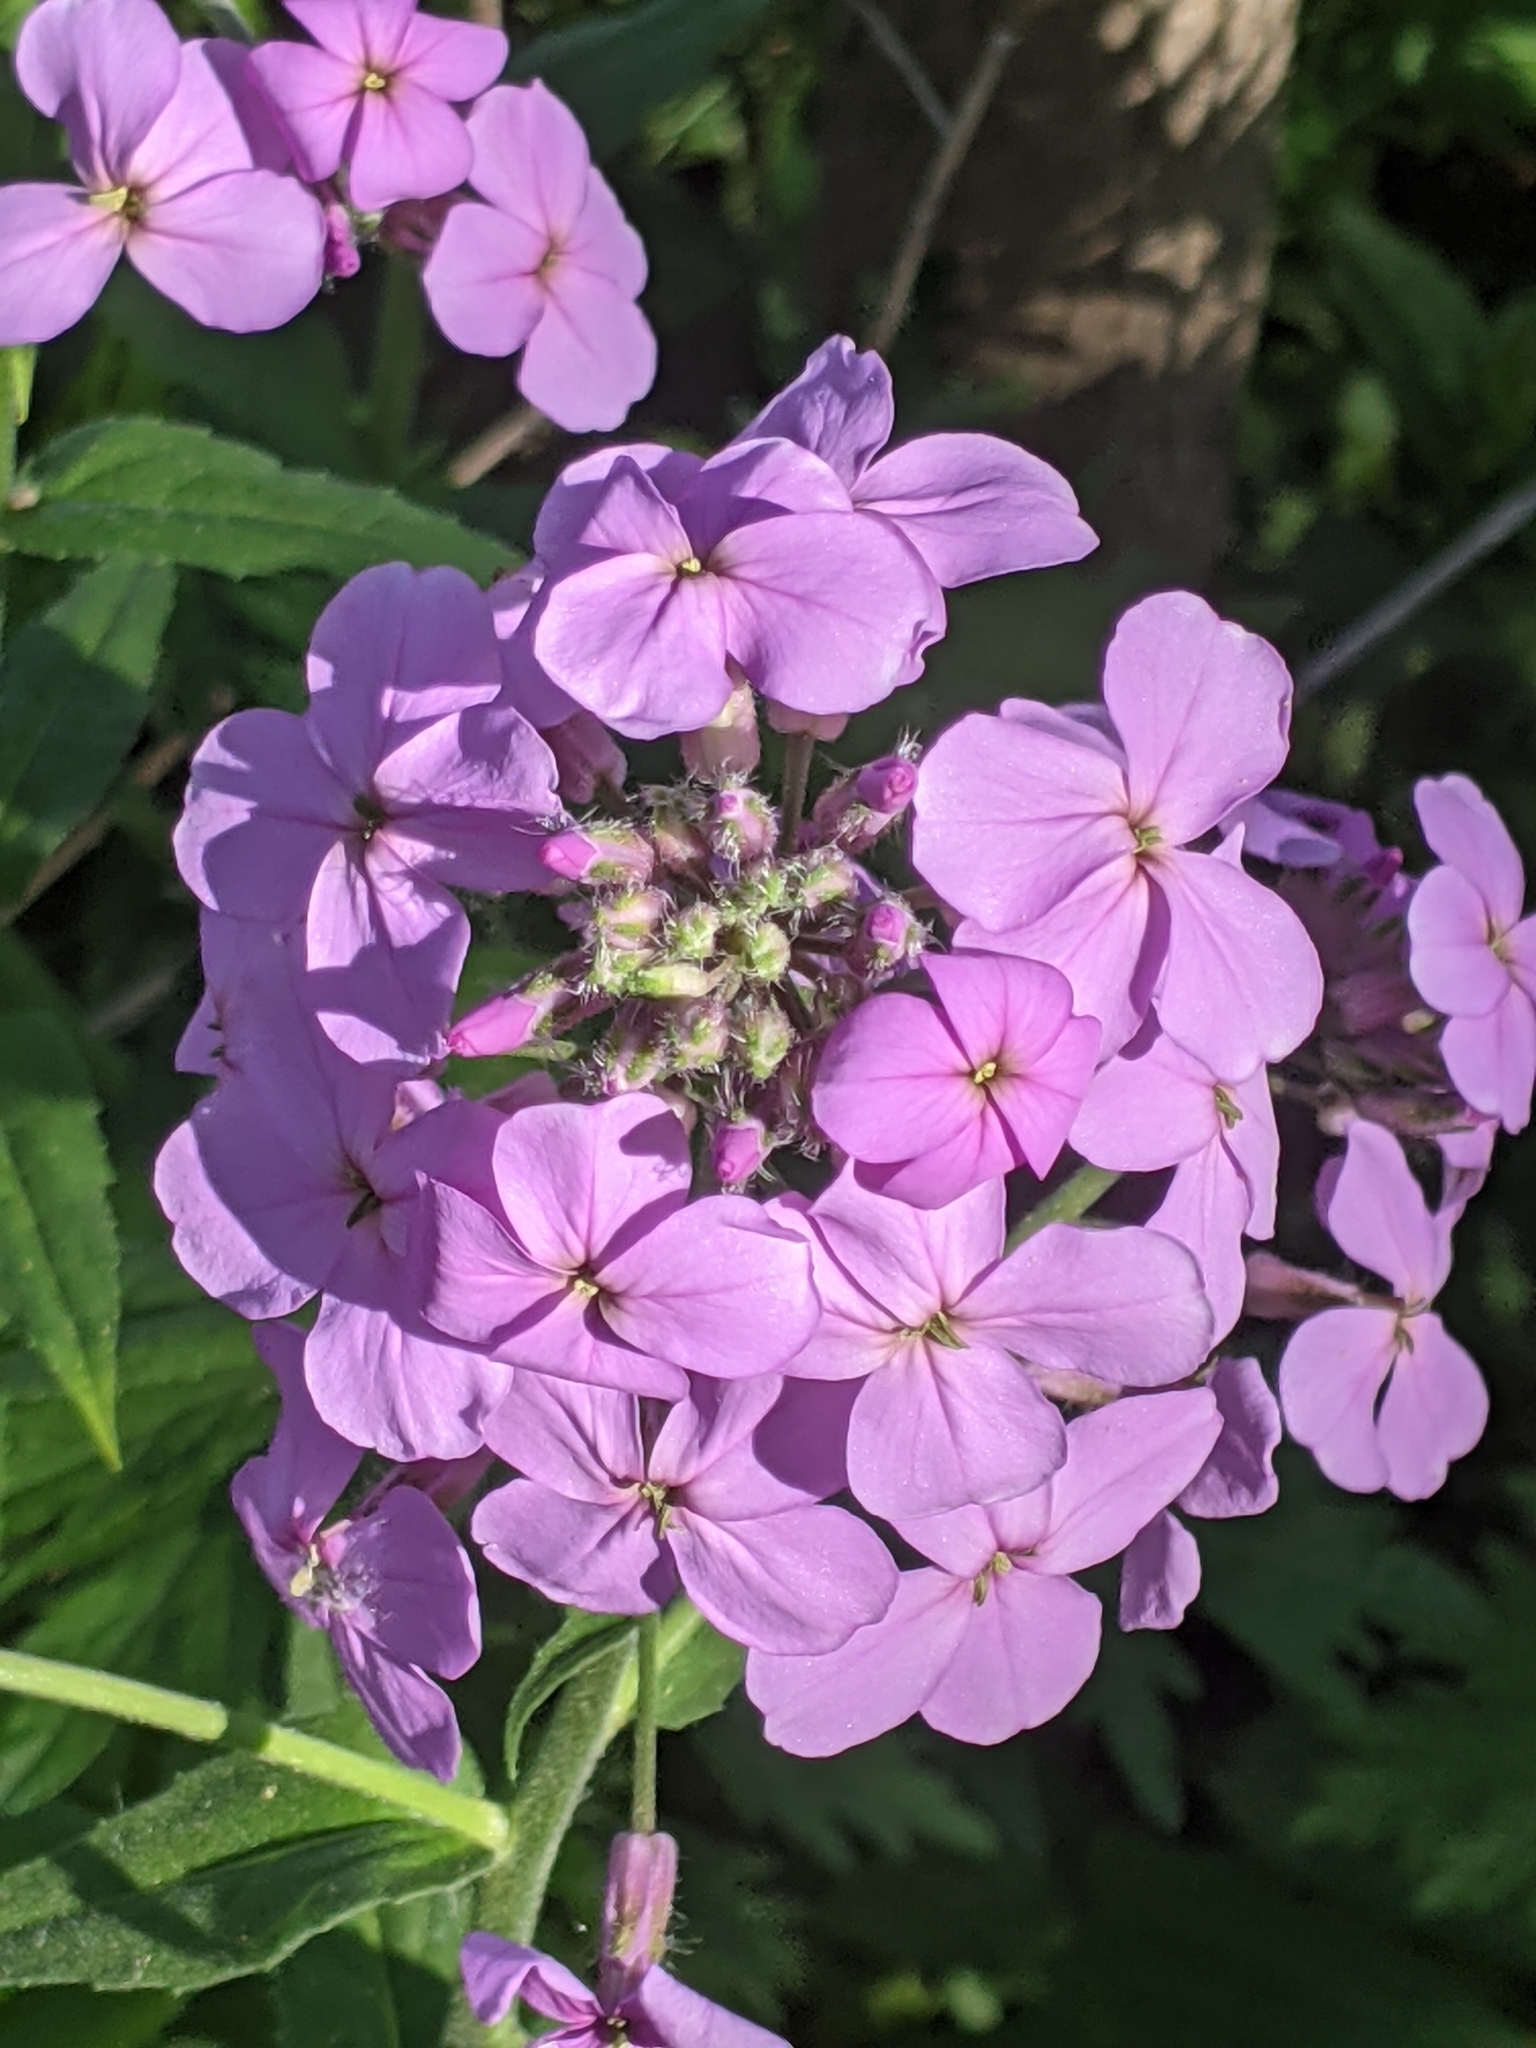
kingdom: Plantae
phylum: Tracheophyta
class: Magnoliopsida
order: Brassicales
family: Brassicaceae
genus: Hesperis
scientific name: Hesperis matronalis
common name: Dame's-violet
